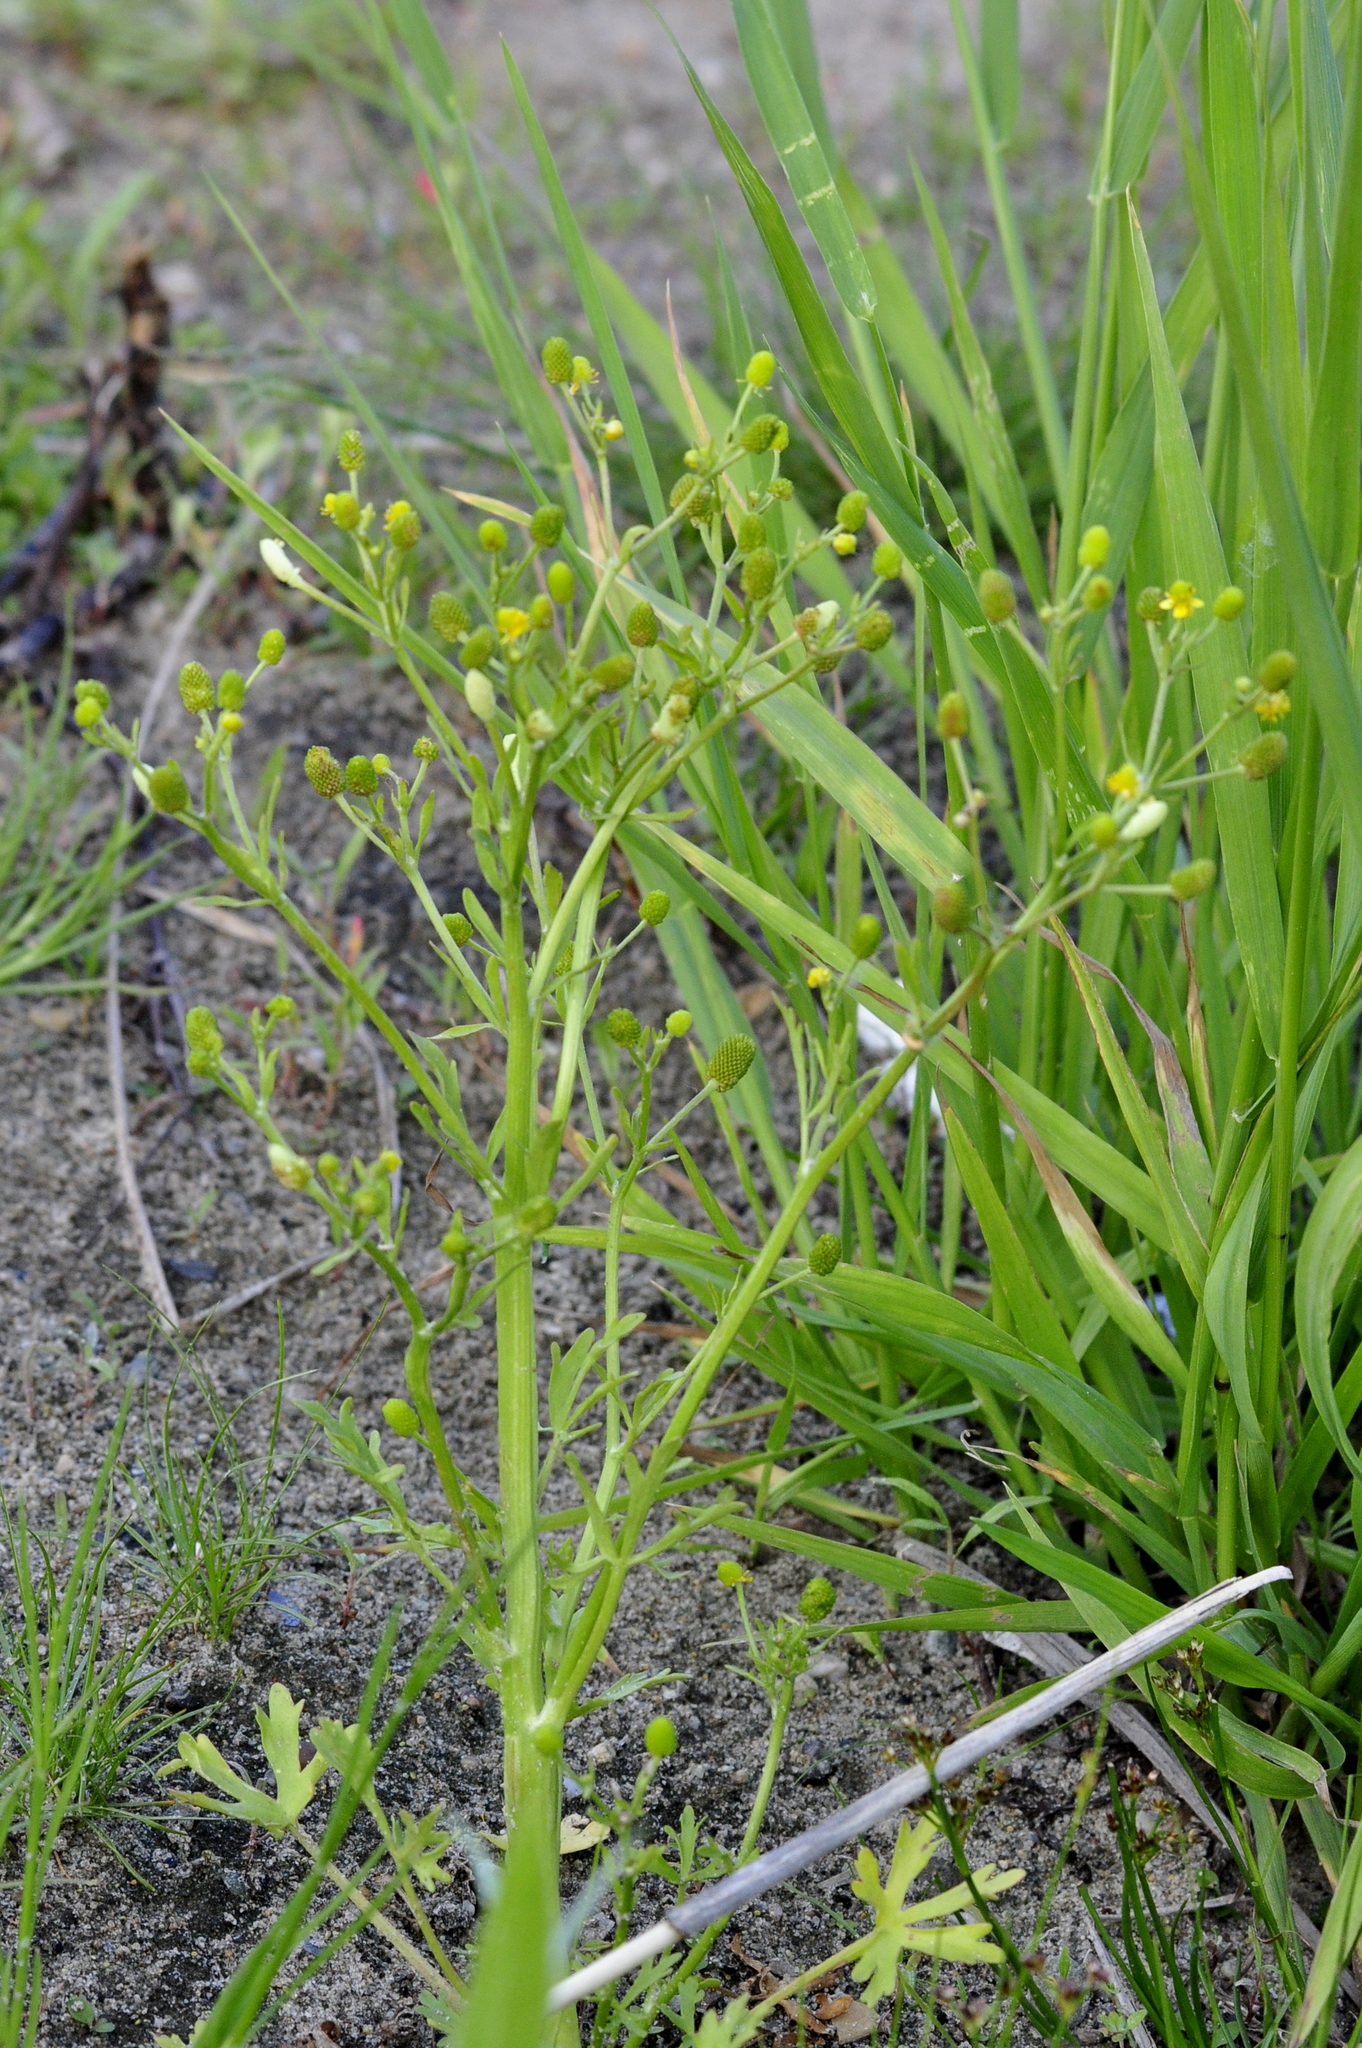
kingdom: Plantae
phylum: Tracheophyta
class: Magnoliopsida
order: Ranunculales
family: Ranunculaceae
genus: Ranunculus
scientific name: Ranunculus sceleratus
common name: Celery-leaved buttercup
